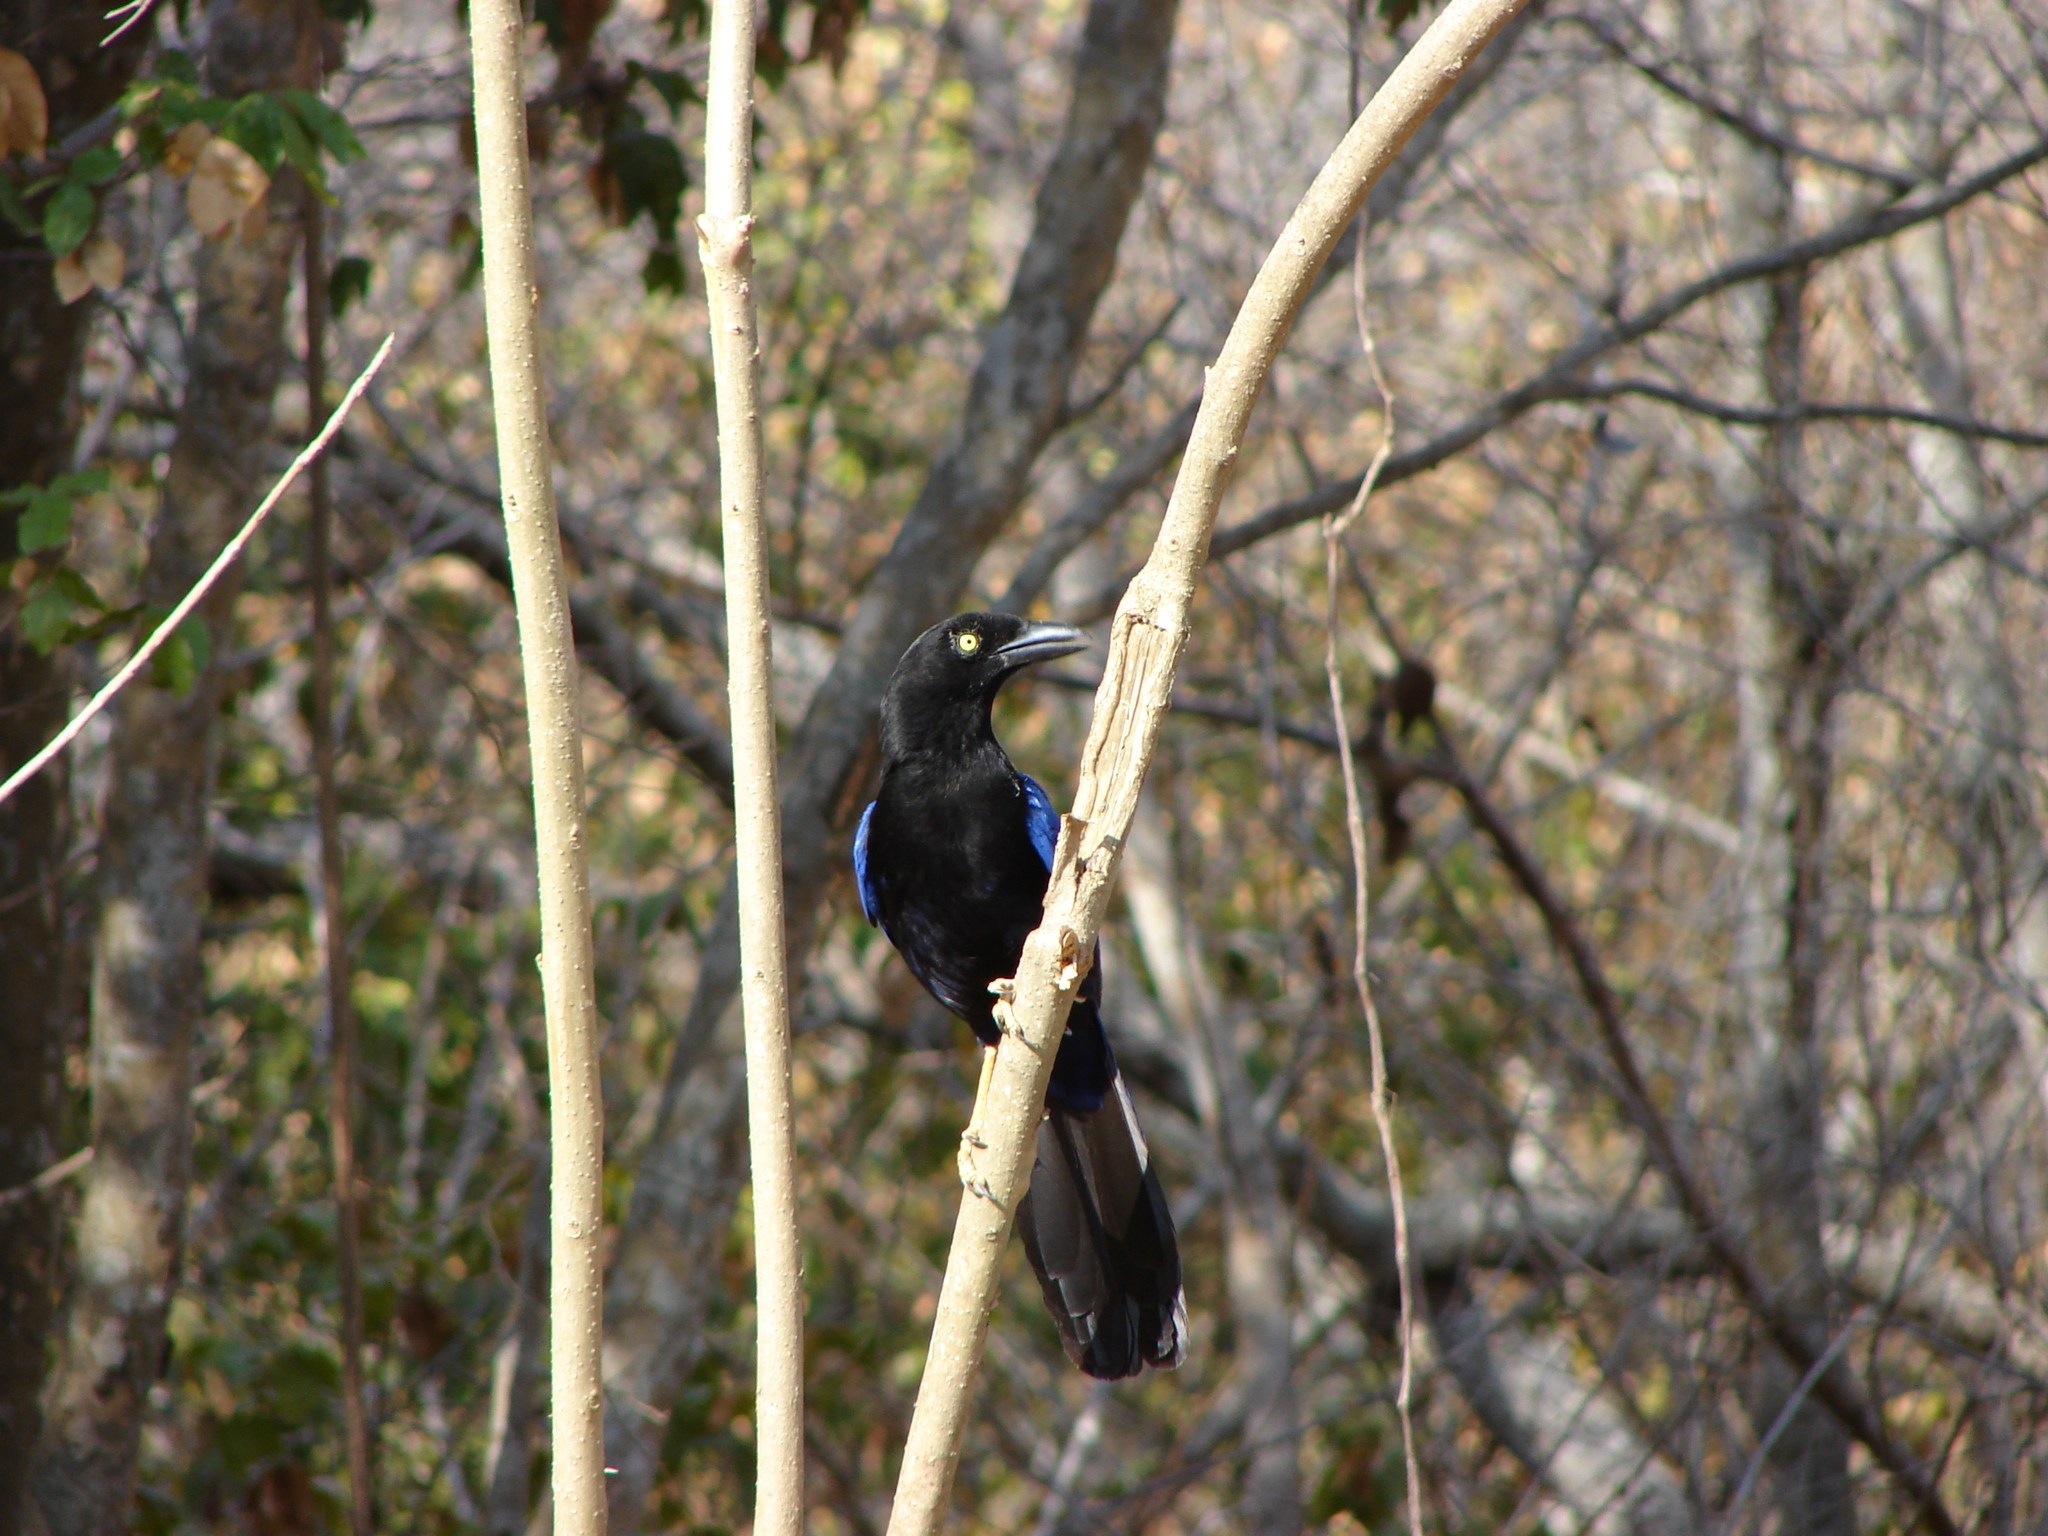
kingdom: Animalia
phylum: Chordata
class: Aves
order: Passeriformes
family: Corvidae
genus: Cyanocorax
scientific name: Cyanocorax beecheii
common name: Purplish-backed jay
